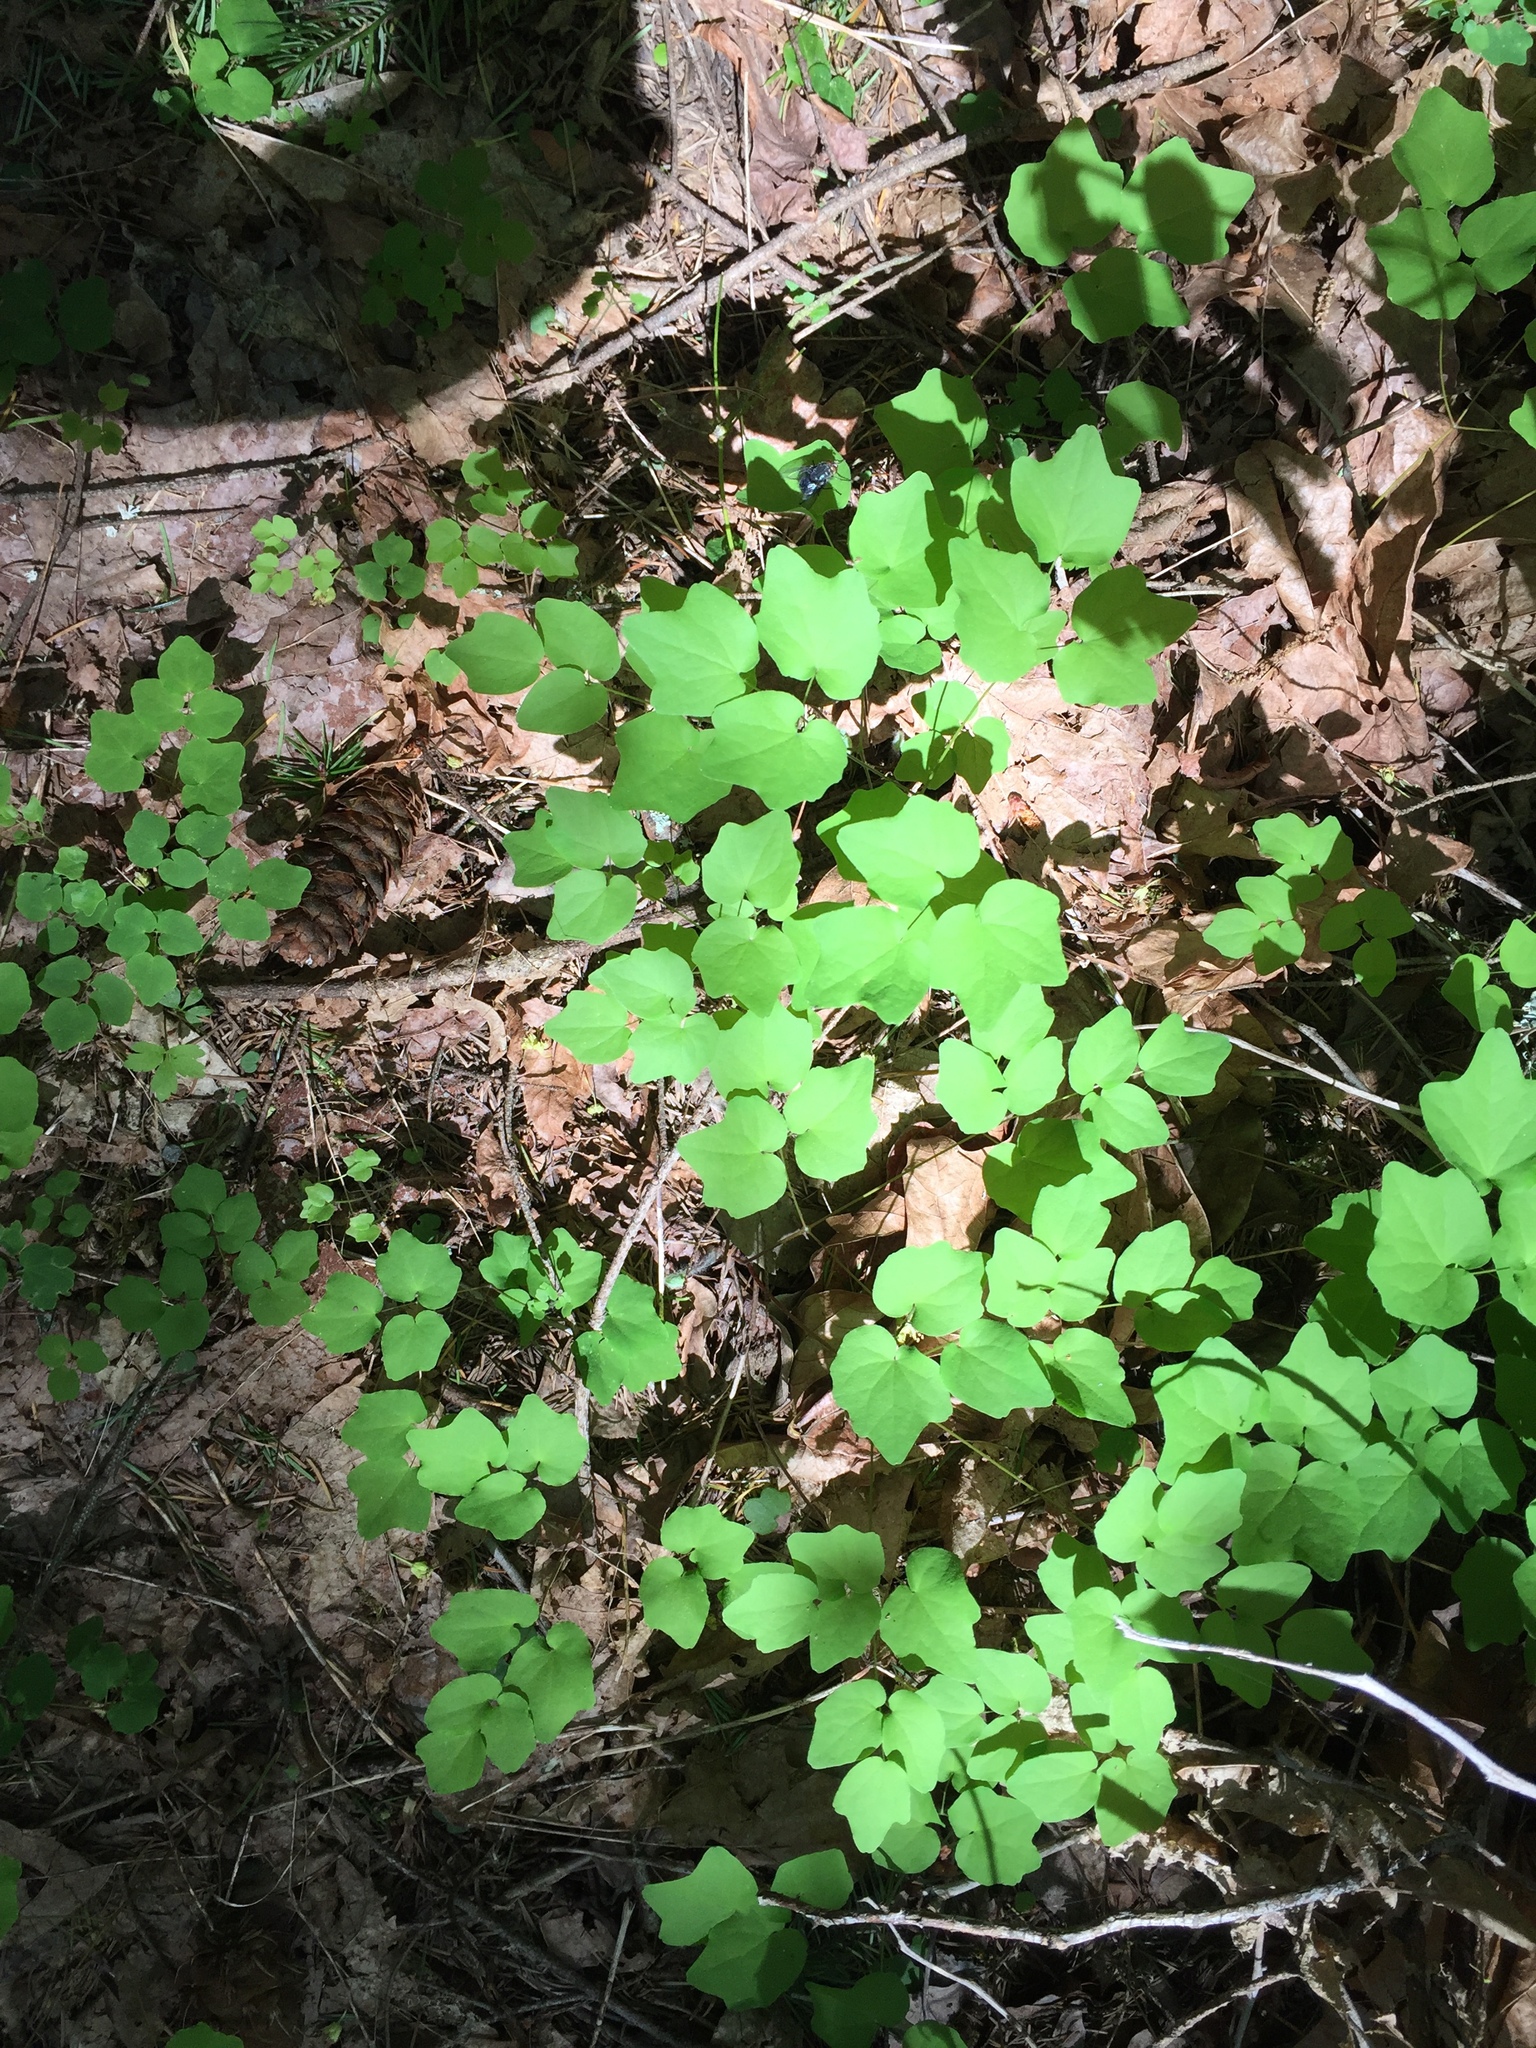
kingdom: Plantae
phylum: Tracheophyta
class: Magnoliopsida
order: Ranunculales
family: Berberidaceae
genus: Vancouveria
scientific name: Vancouveria hexandra
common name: Northern inside-out-flower
